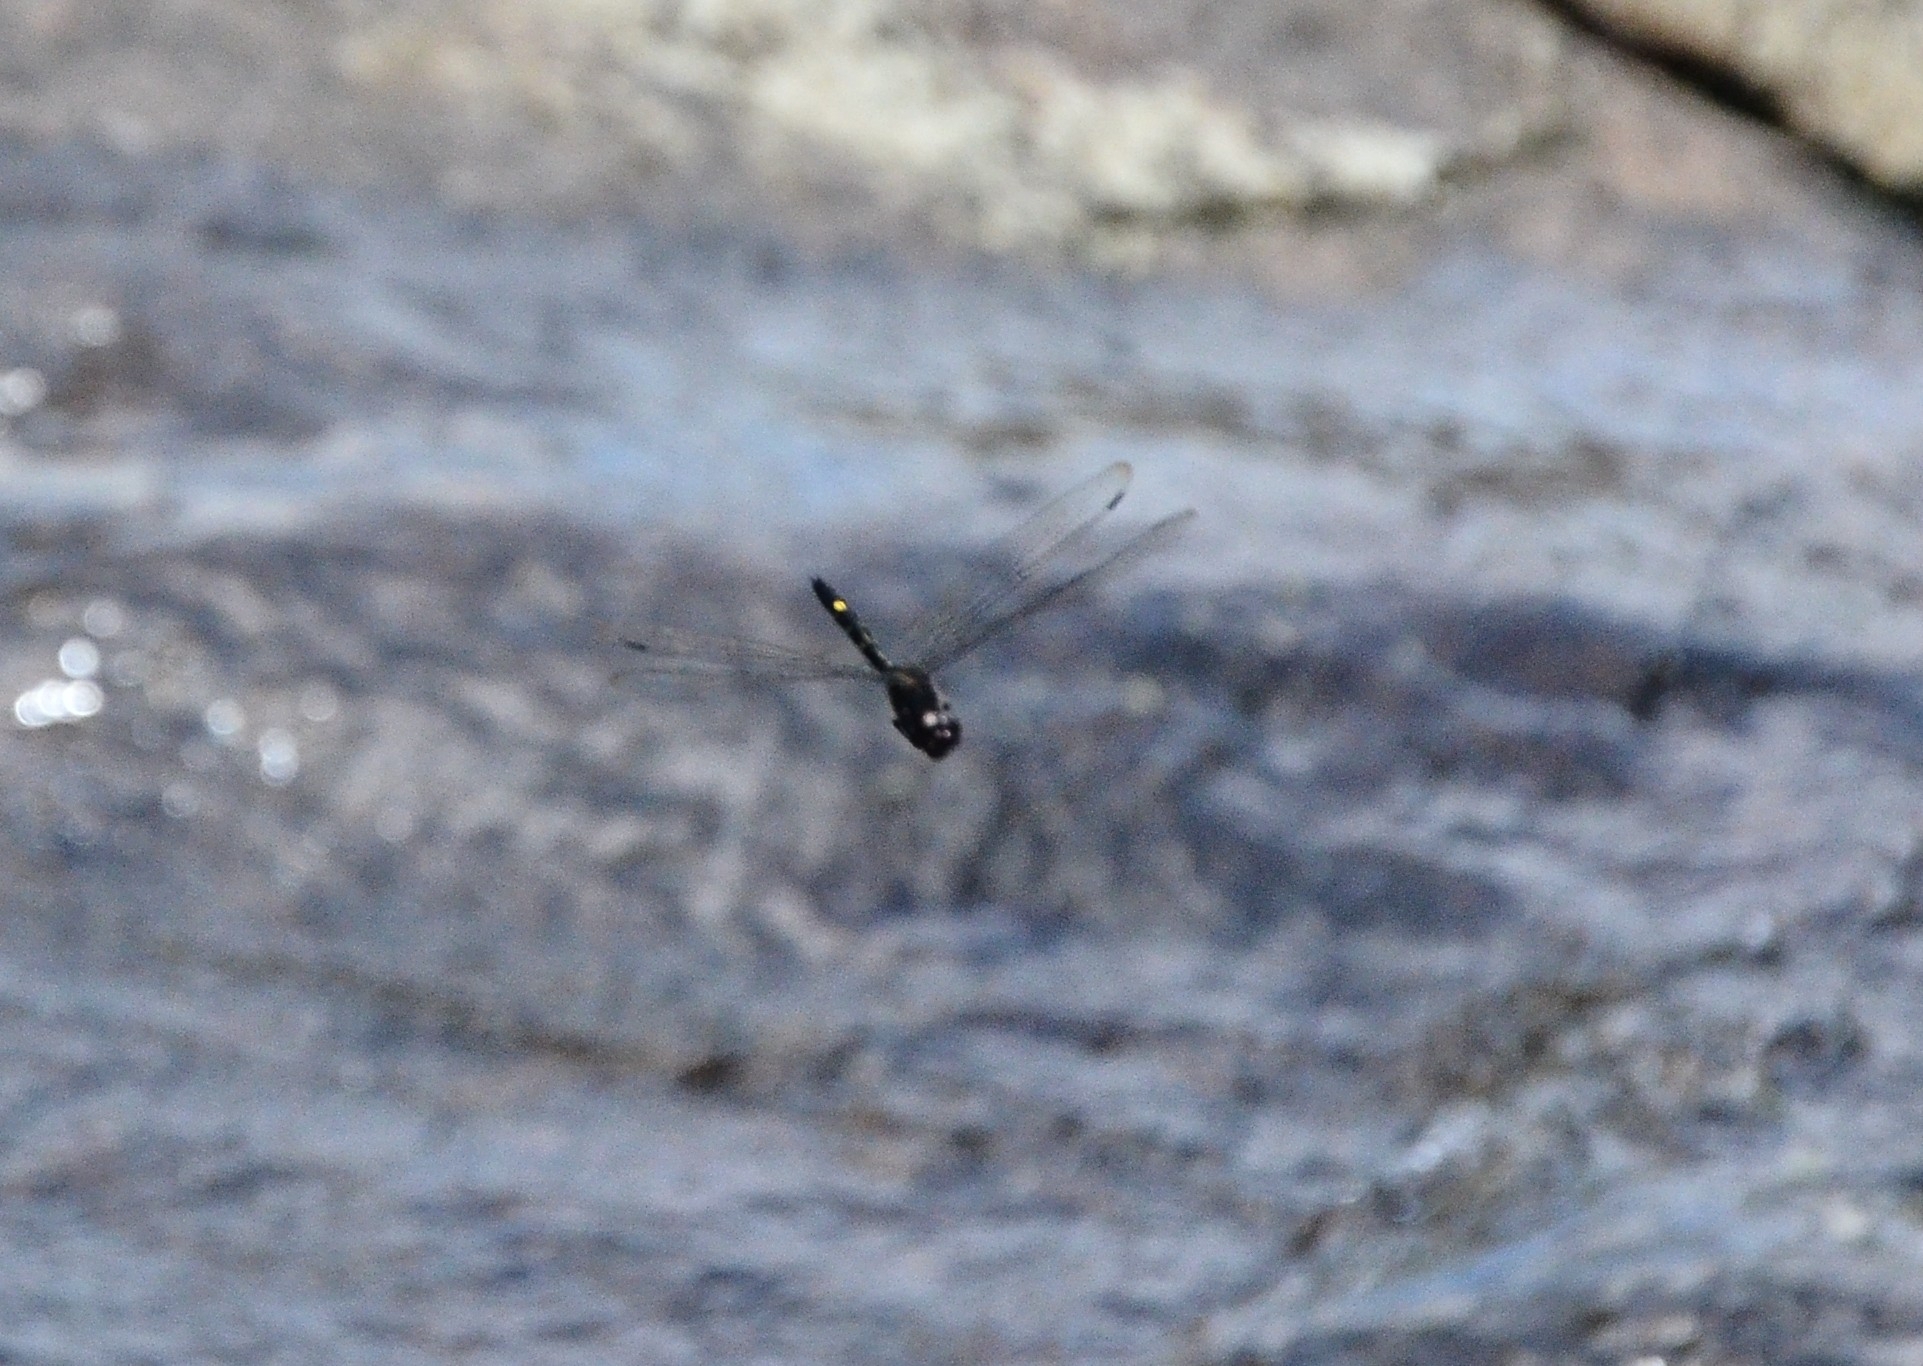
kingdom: Animalia
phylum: Arthropoda
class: Insecta
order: Odonata
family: Libellulidae
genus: Zygonyx
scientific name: Zygonyx iris
